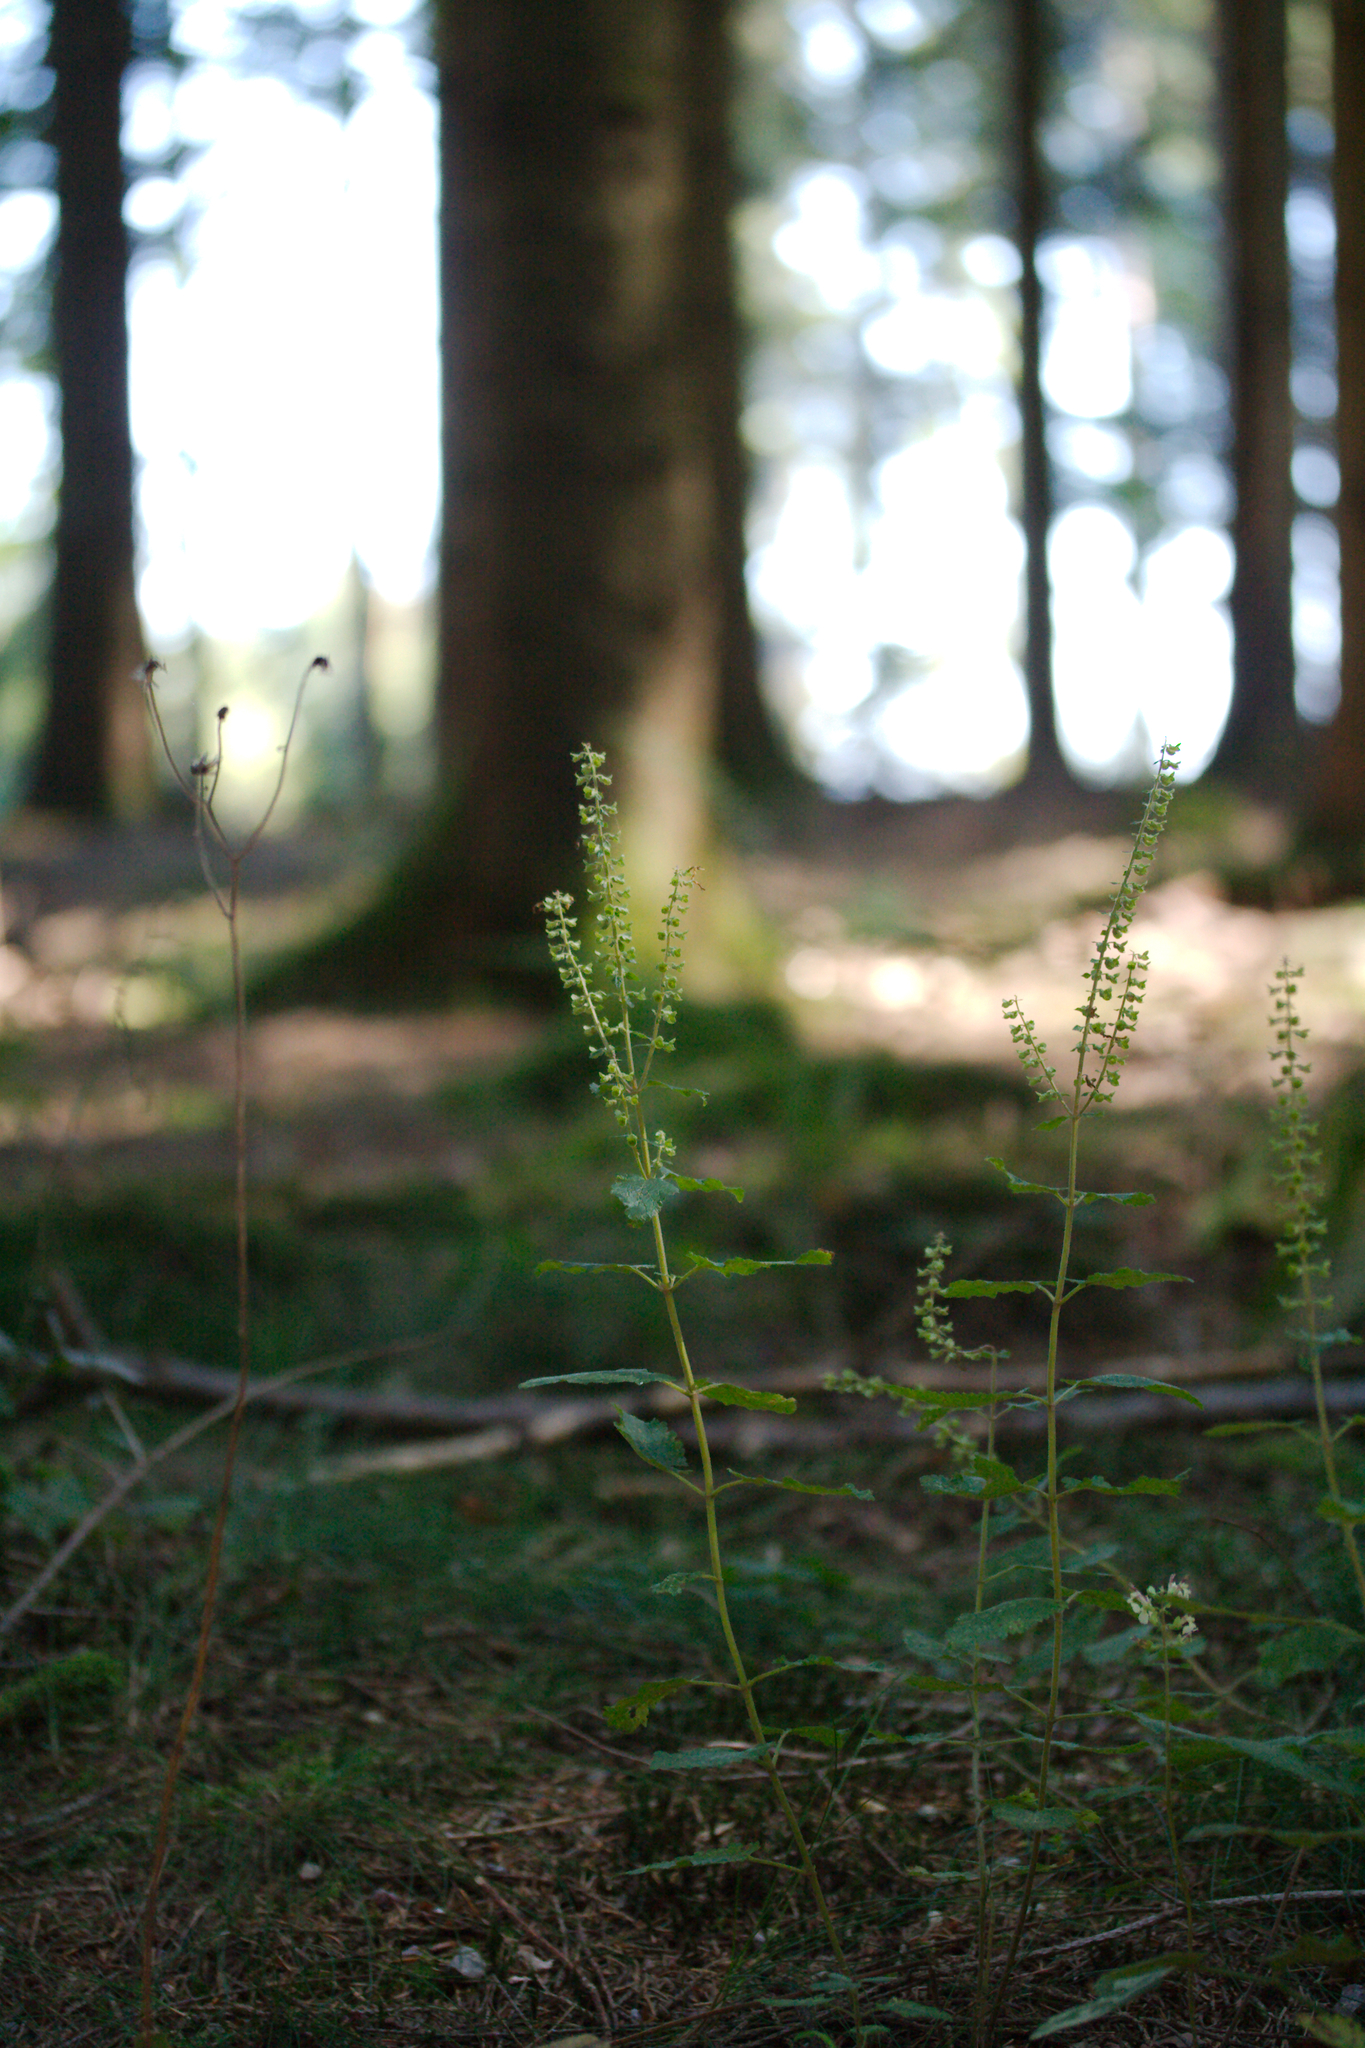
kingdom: Plantae
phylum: Tracheophyta
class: Magnoliopsida
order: Lamiales
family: Lamiaceae
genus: Teucrium
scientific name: Teucrium scorodonia
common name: Woodland germander
